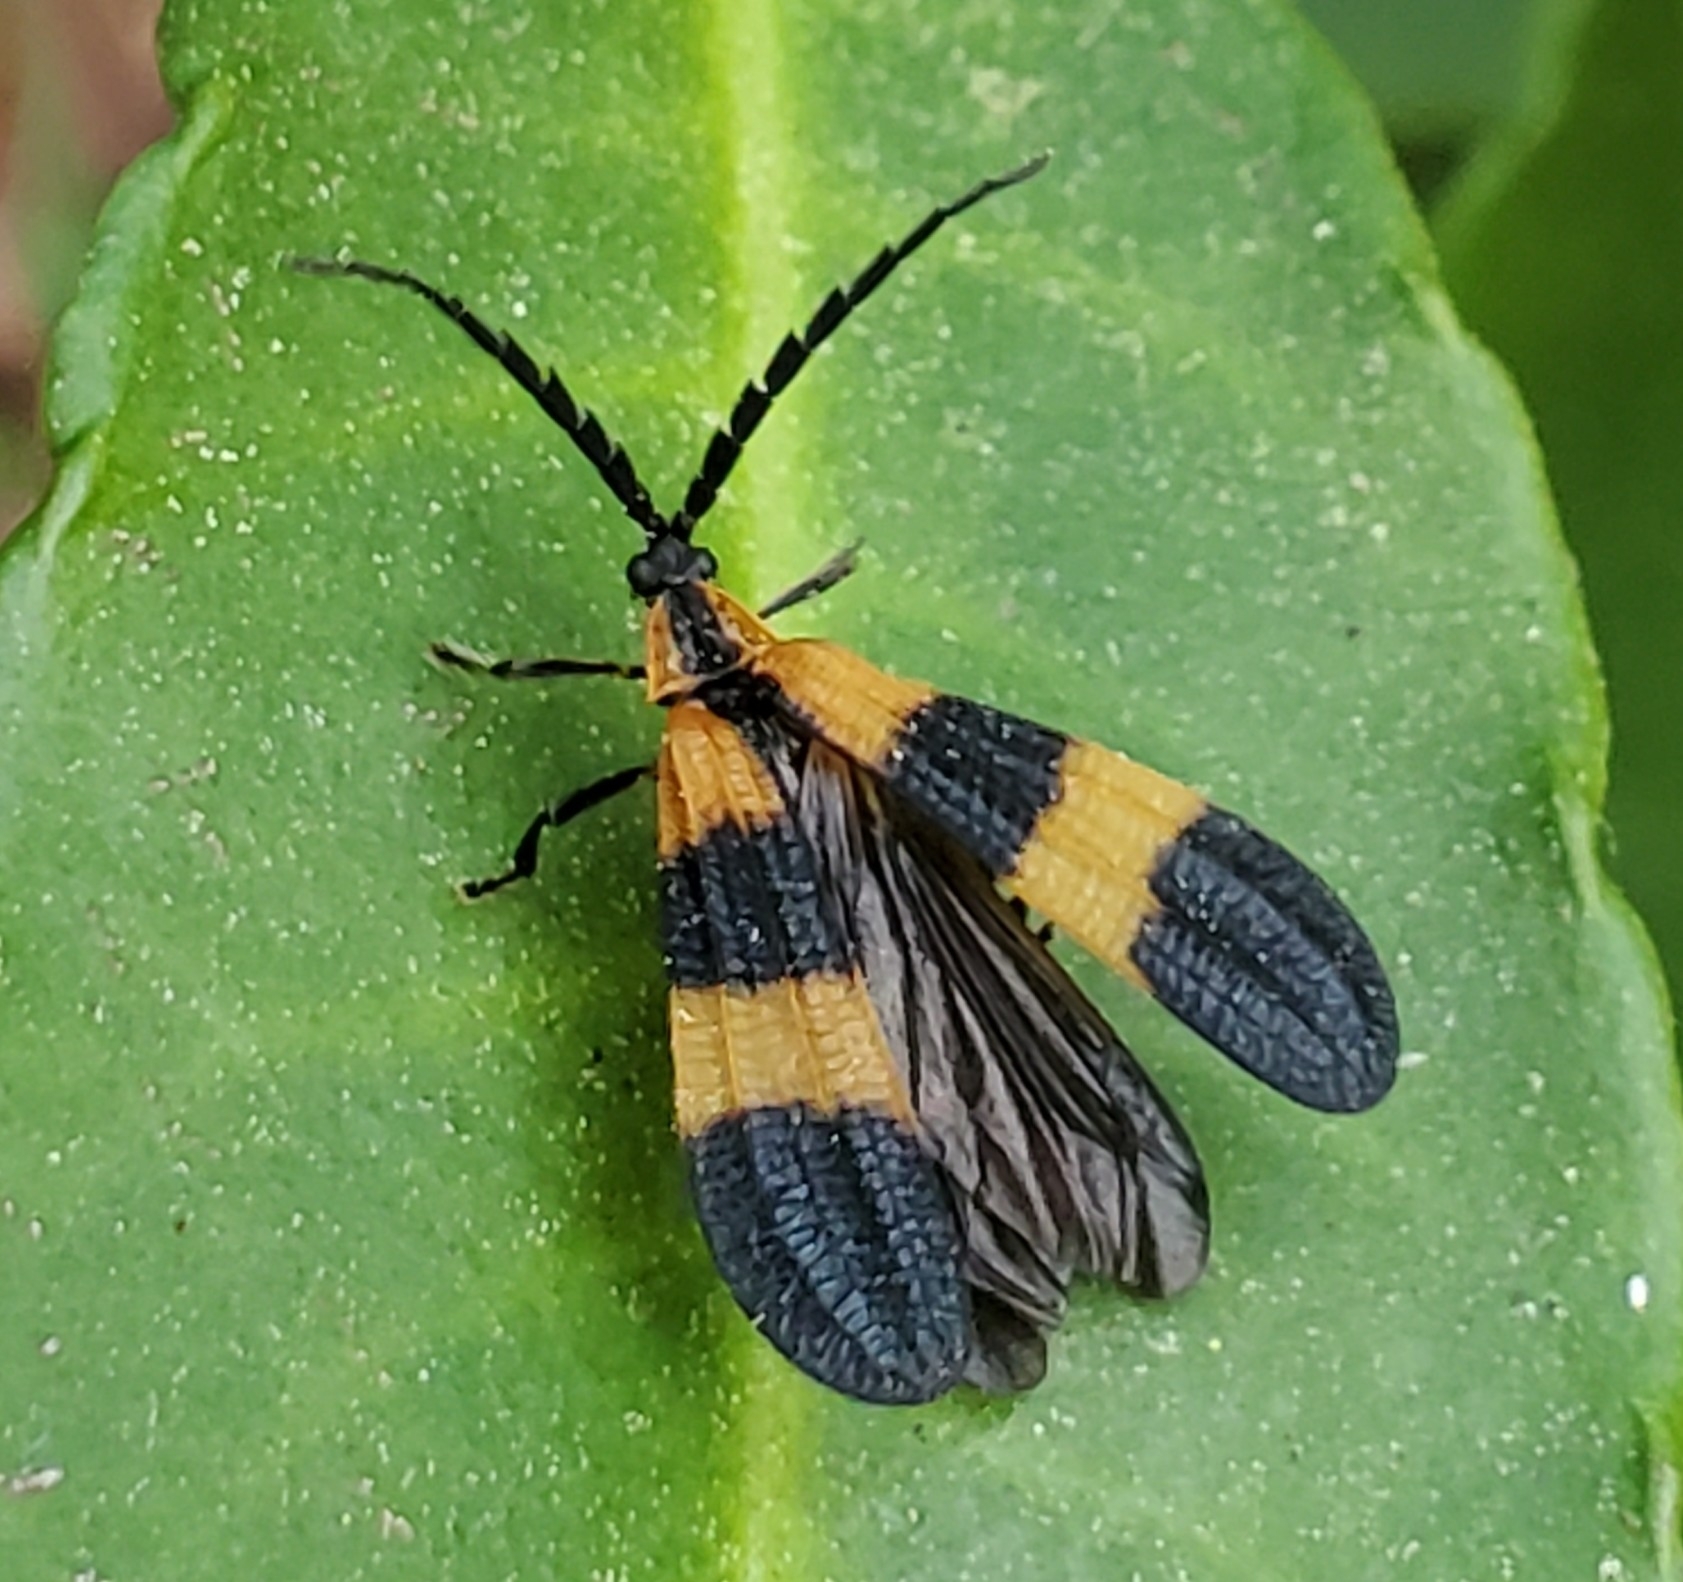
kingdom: Animalia
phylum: Arthropoda
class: Insecta
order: Coleoptera
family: Lycidae
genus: Calopteron
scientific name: Calopteron discrepans
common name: Banded net-winged beetle
